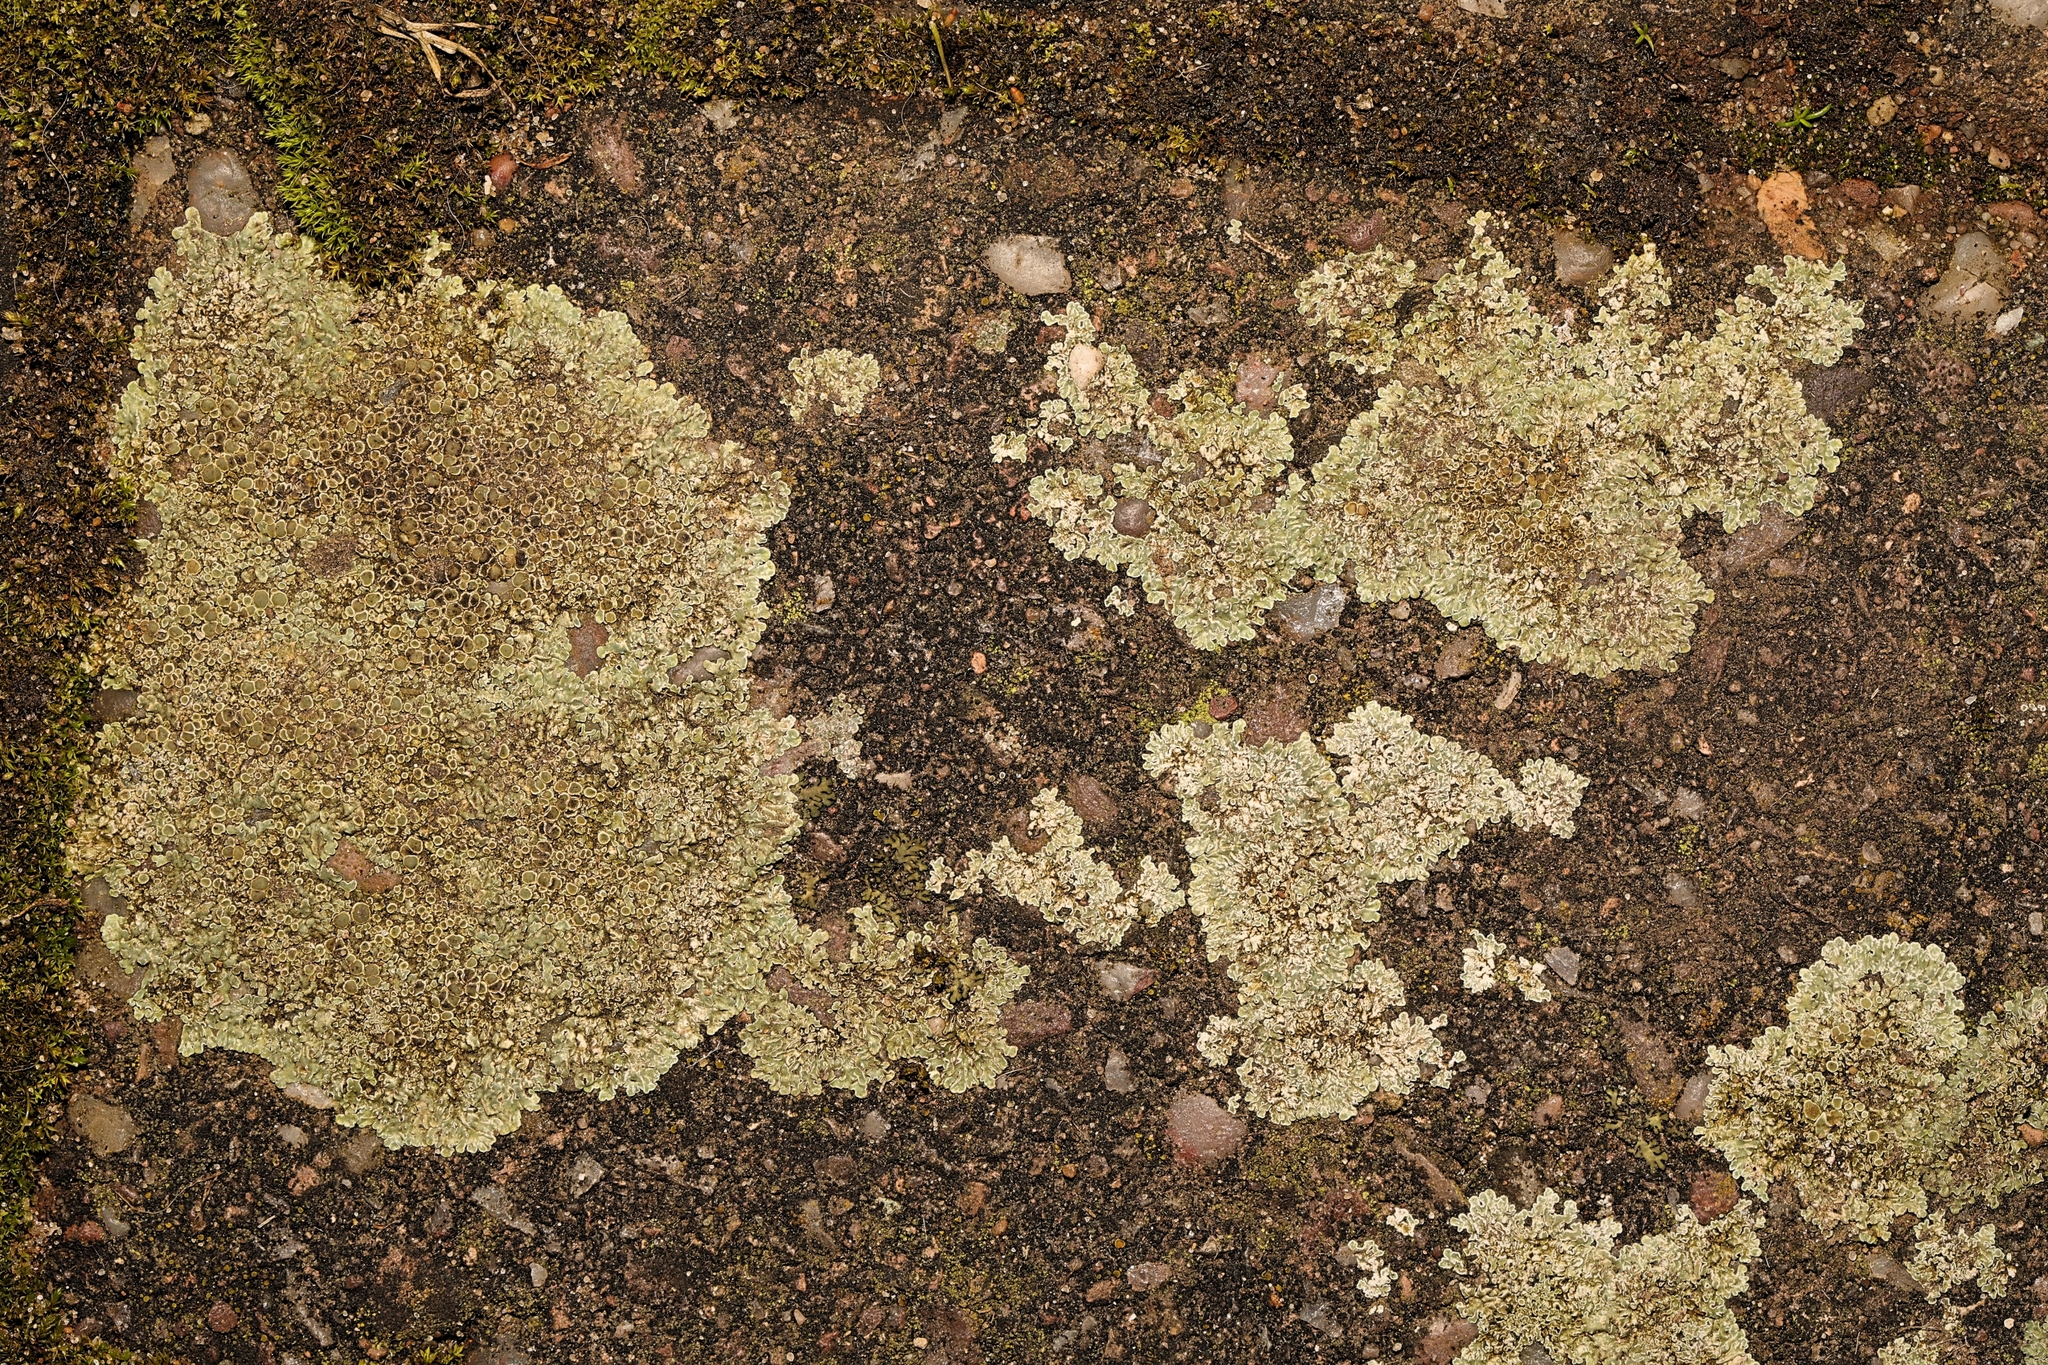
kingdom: Fungi
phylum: Ascomycota
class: Lecanoromycetes
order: Lecanorales
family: Lecanoraceae
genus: Protoparmeliopsis
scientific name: Protoparmeliopsis muralis
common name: Stonewall rim lichen
